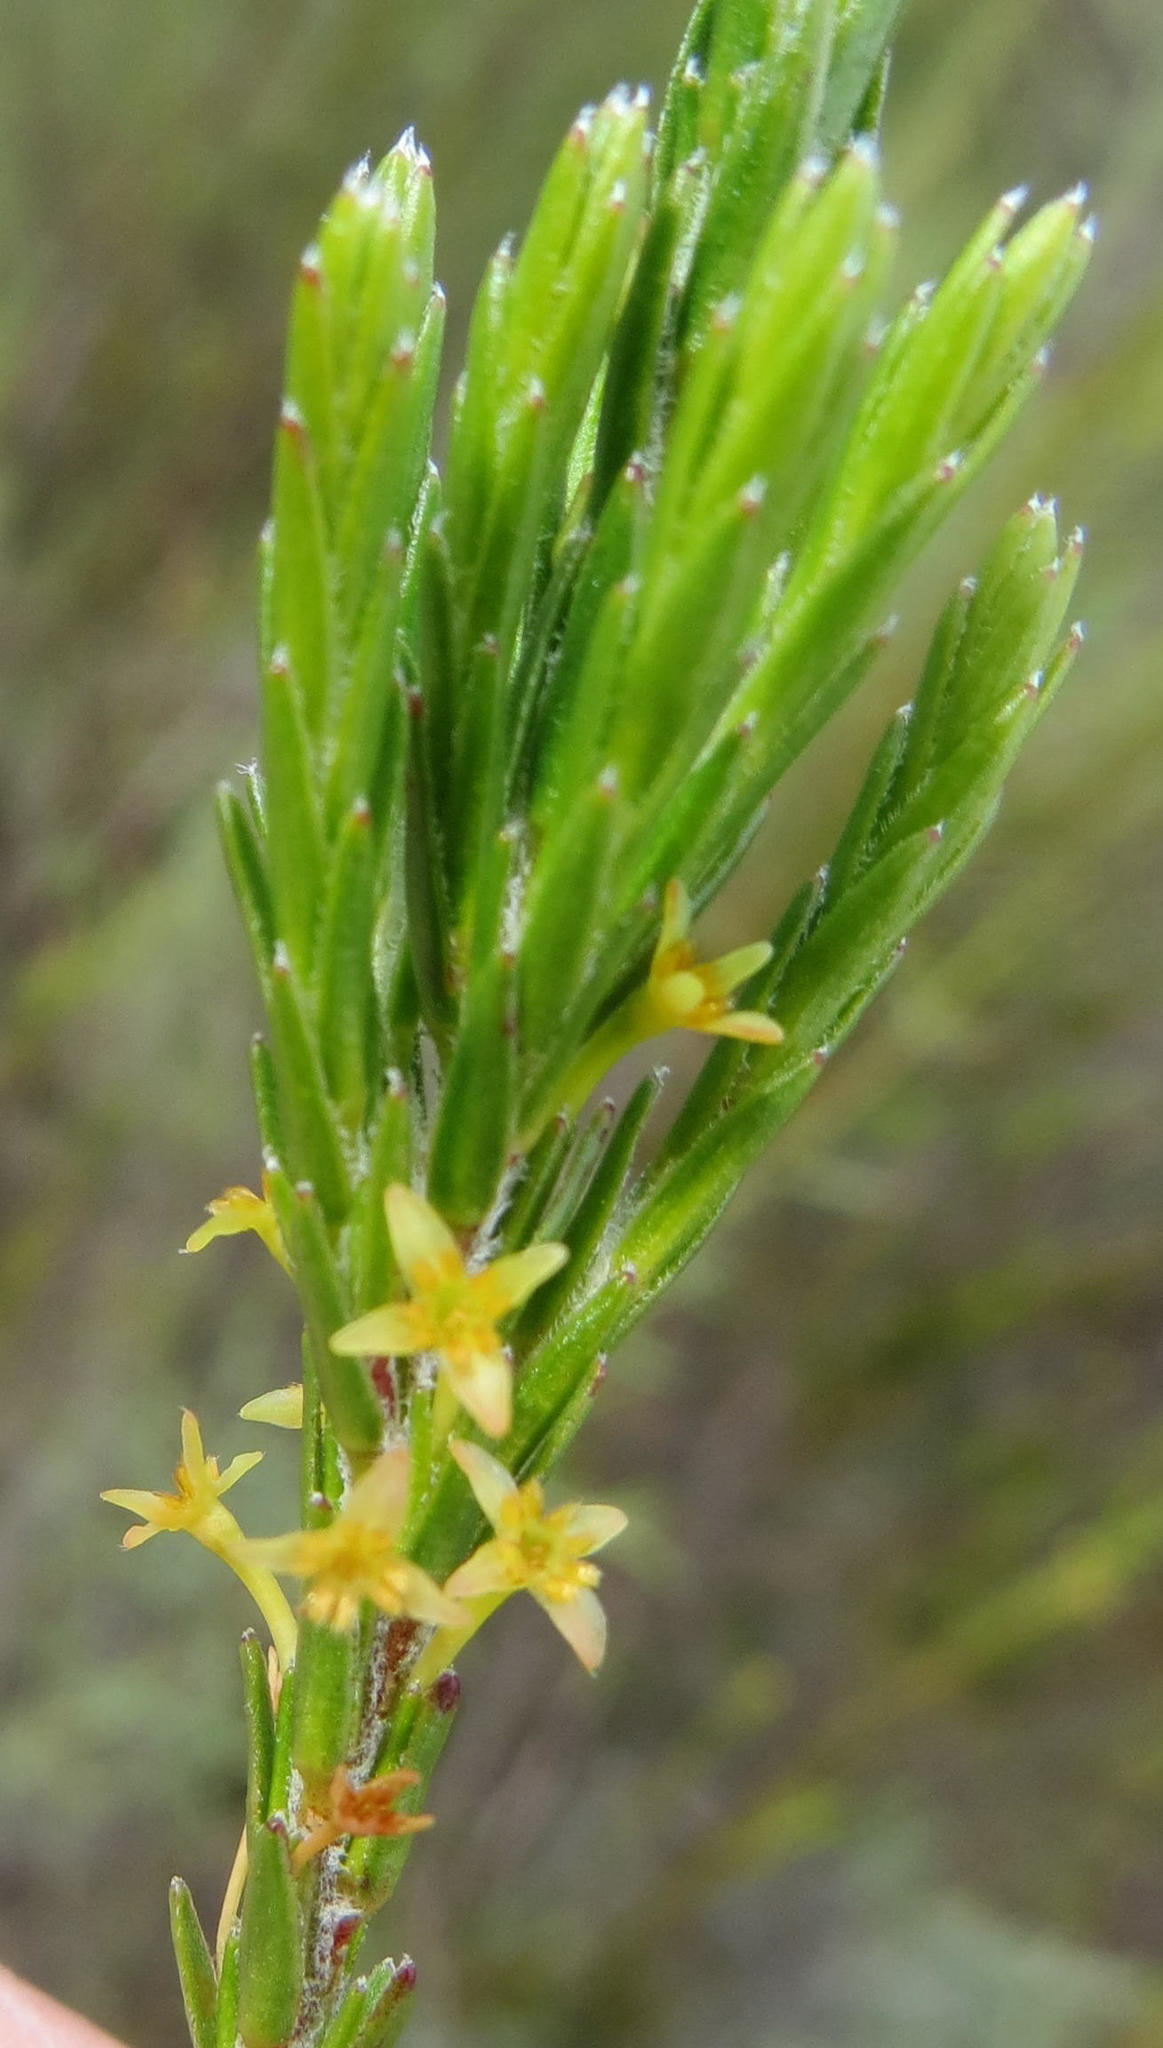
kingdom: Plantae
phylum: Tracheophyta
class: Magnoliopsida
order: Malvales
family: Thymelaeaceae
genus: Struthiola
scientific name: Struthiola parviflora
